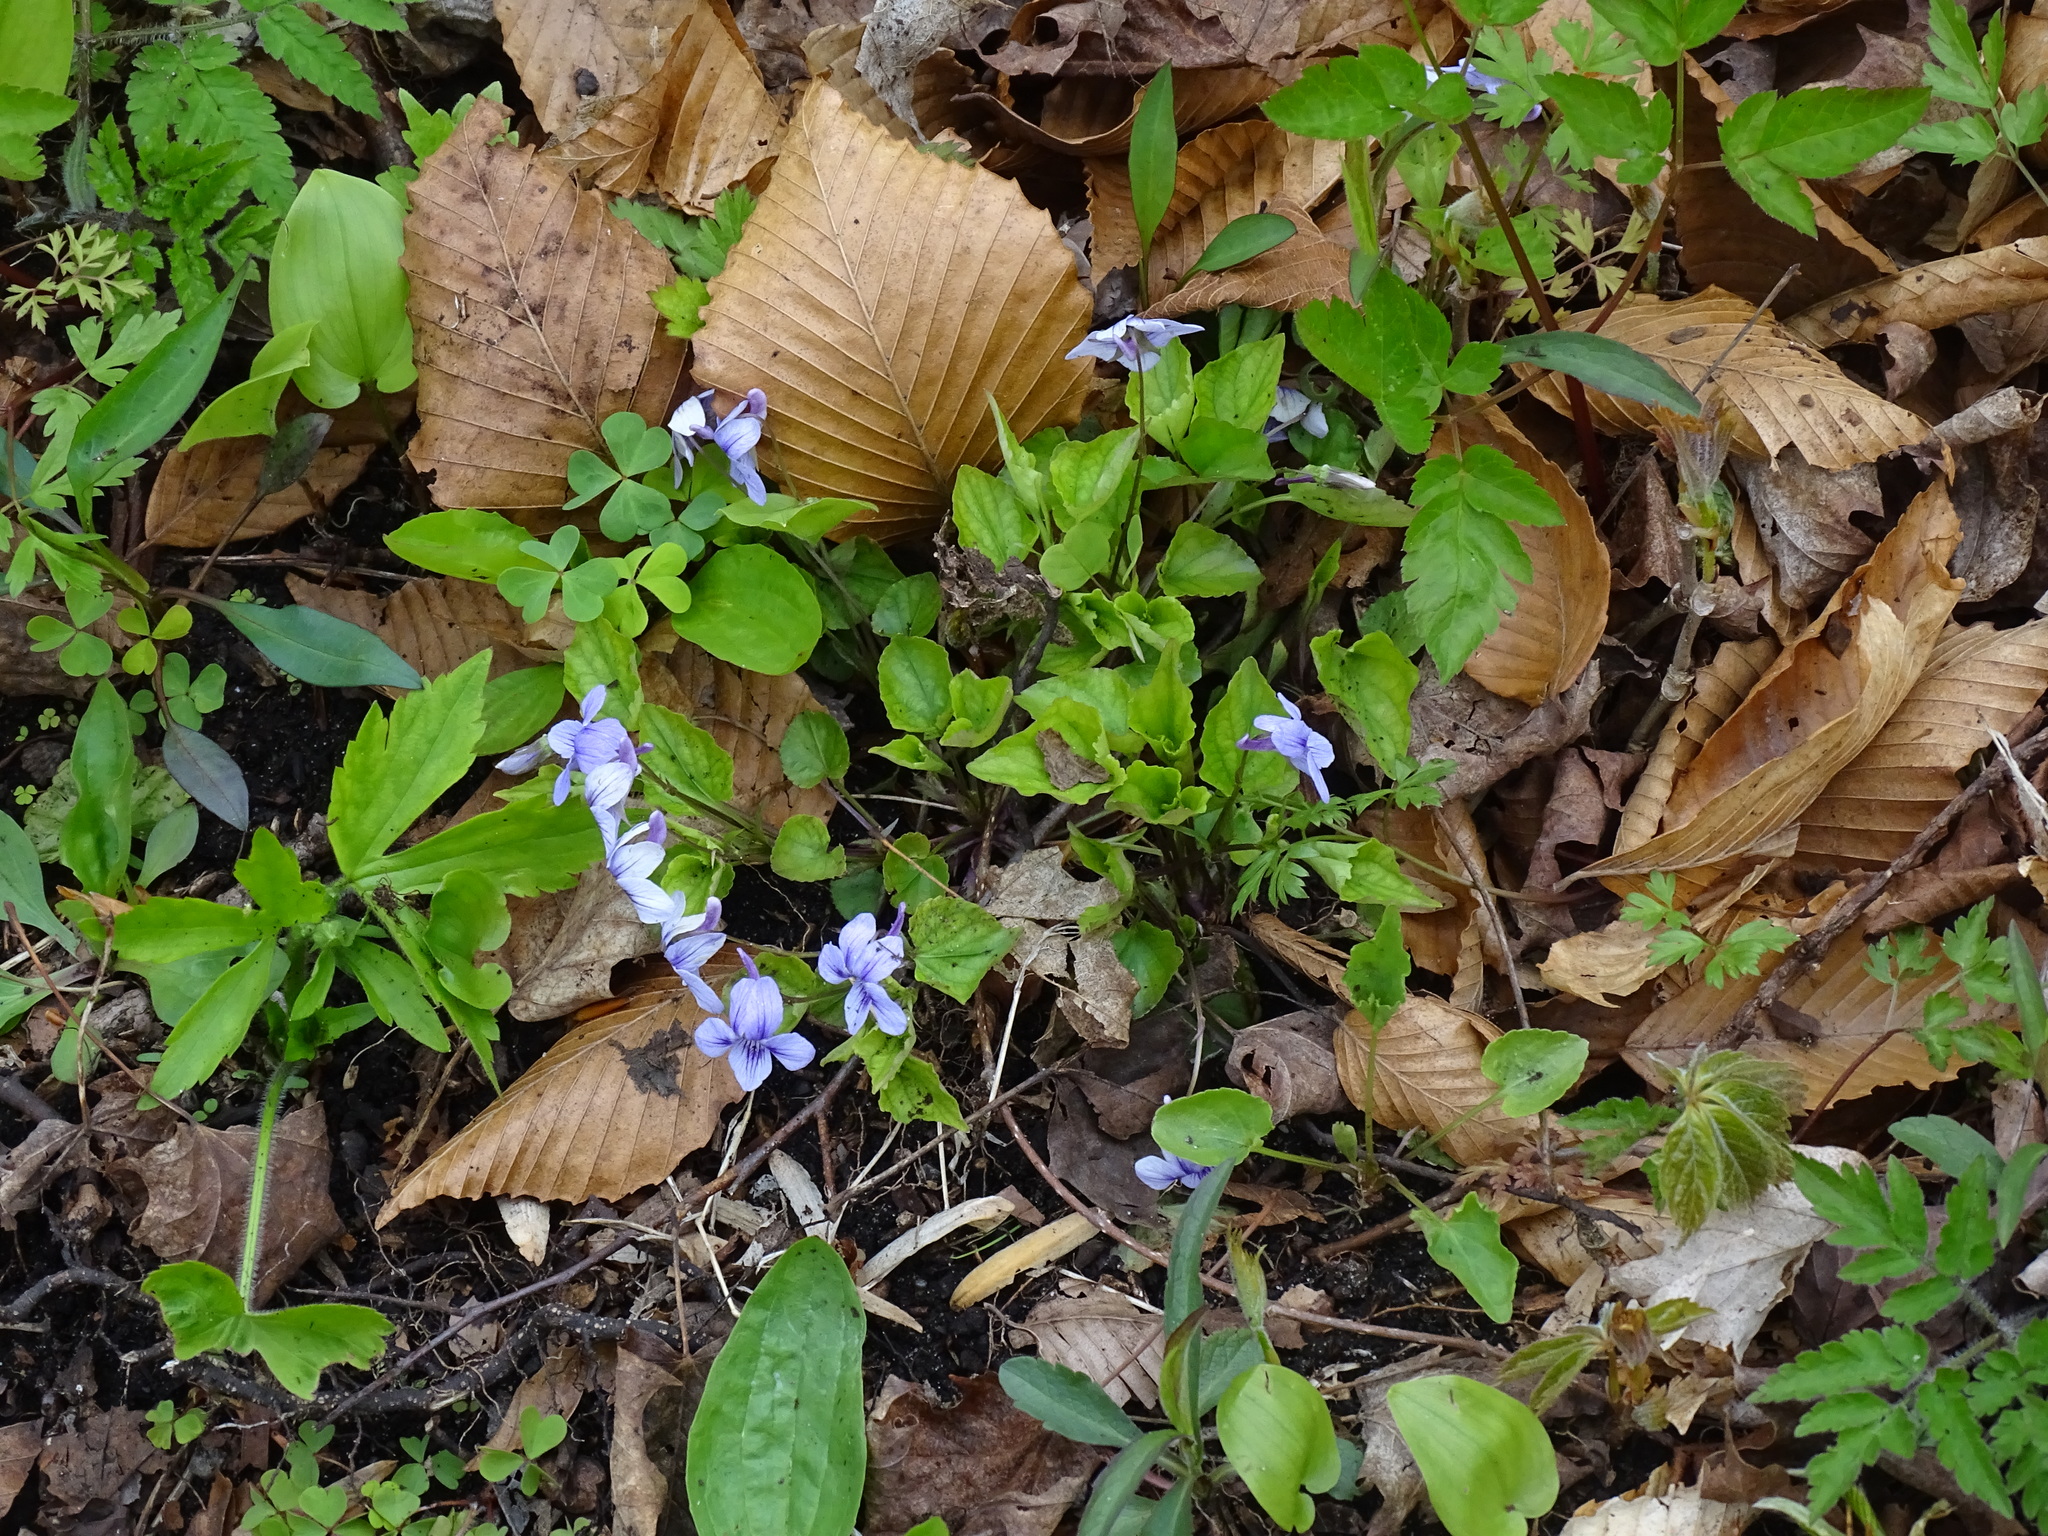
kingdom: Plantae
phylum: Tracheophyta
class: Magnoliopsida
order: Malpighiales
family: Violaceae
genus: Viola
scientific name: Viola rostrata
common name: Long-spur violet
